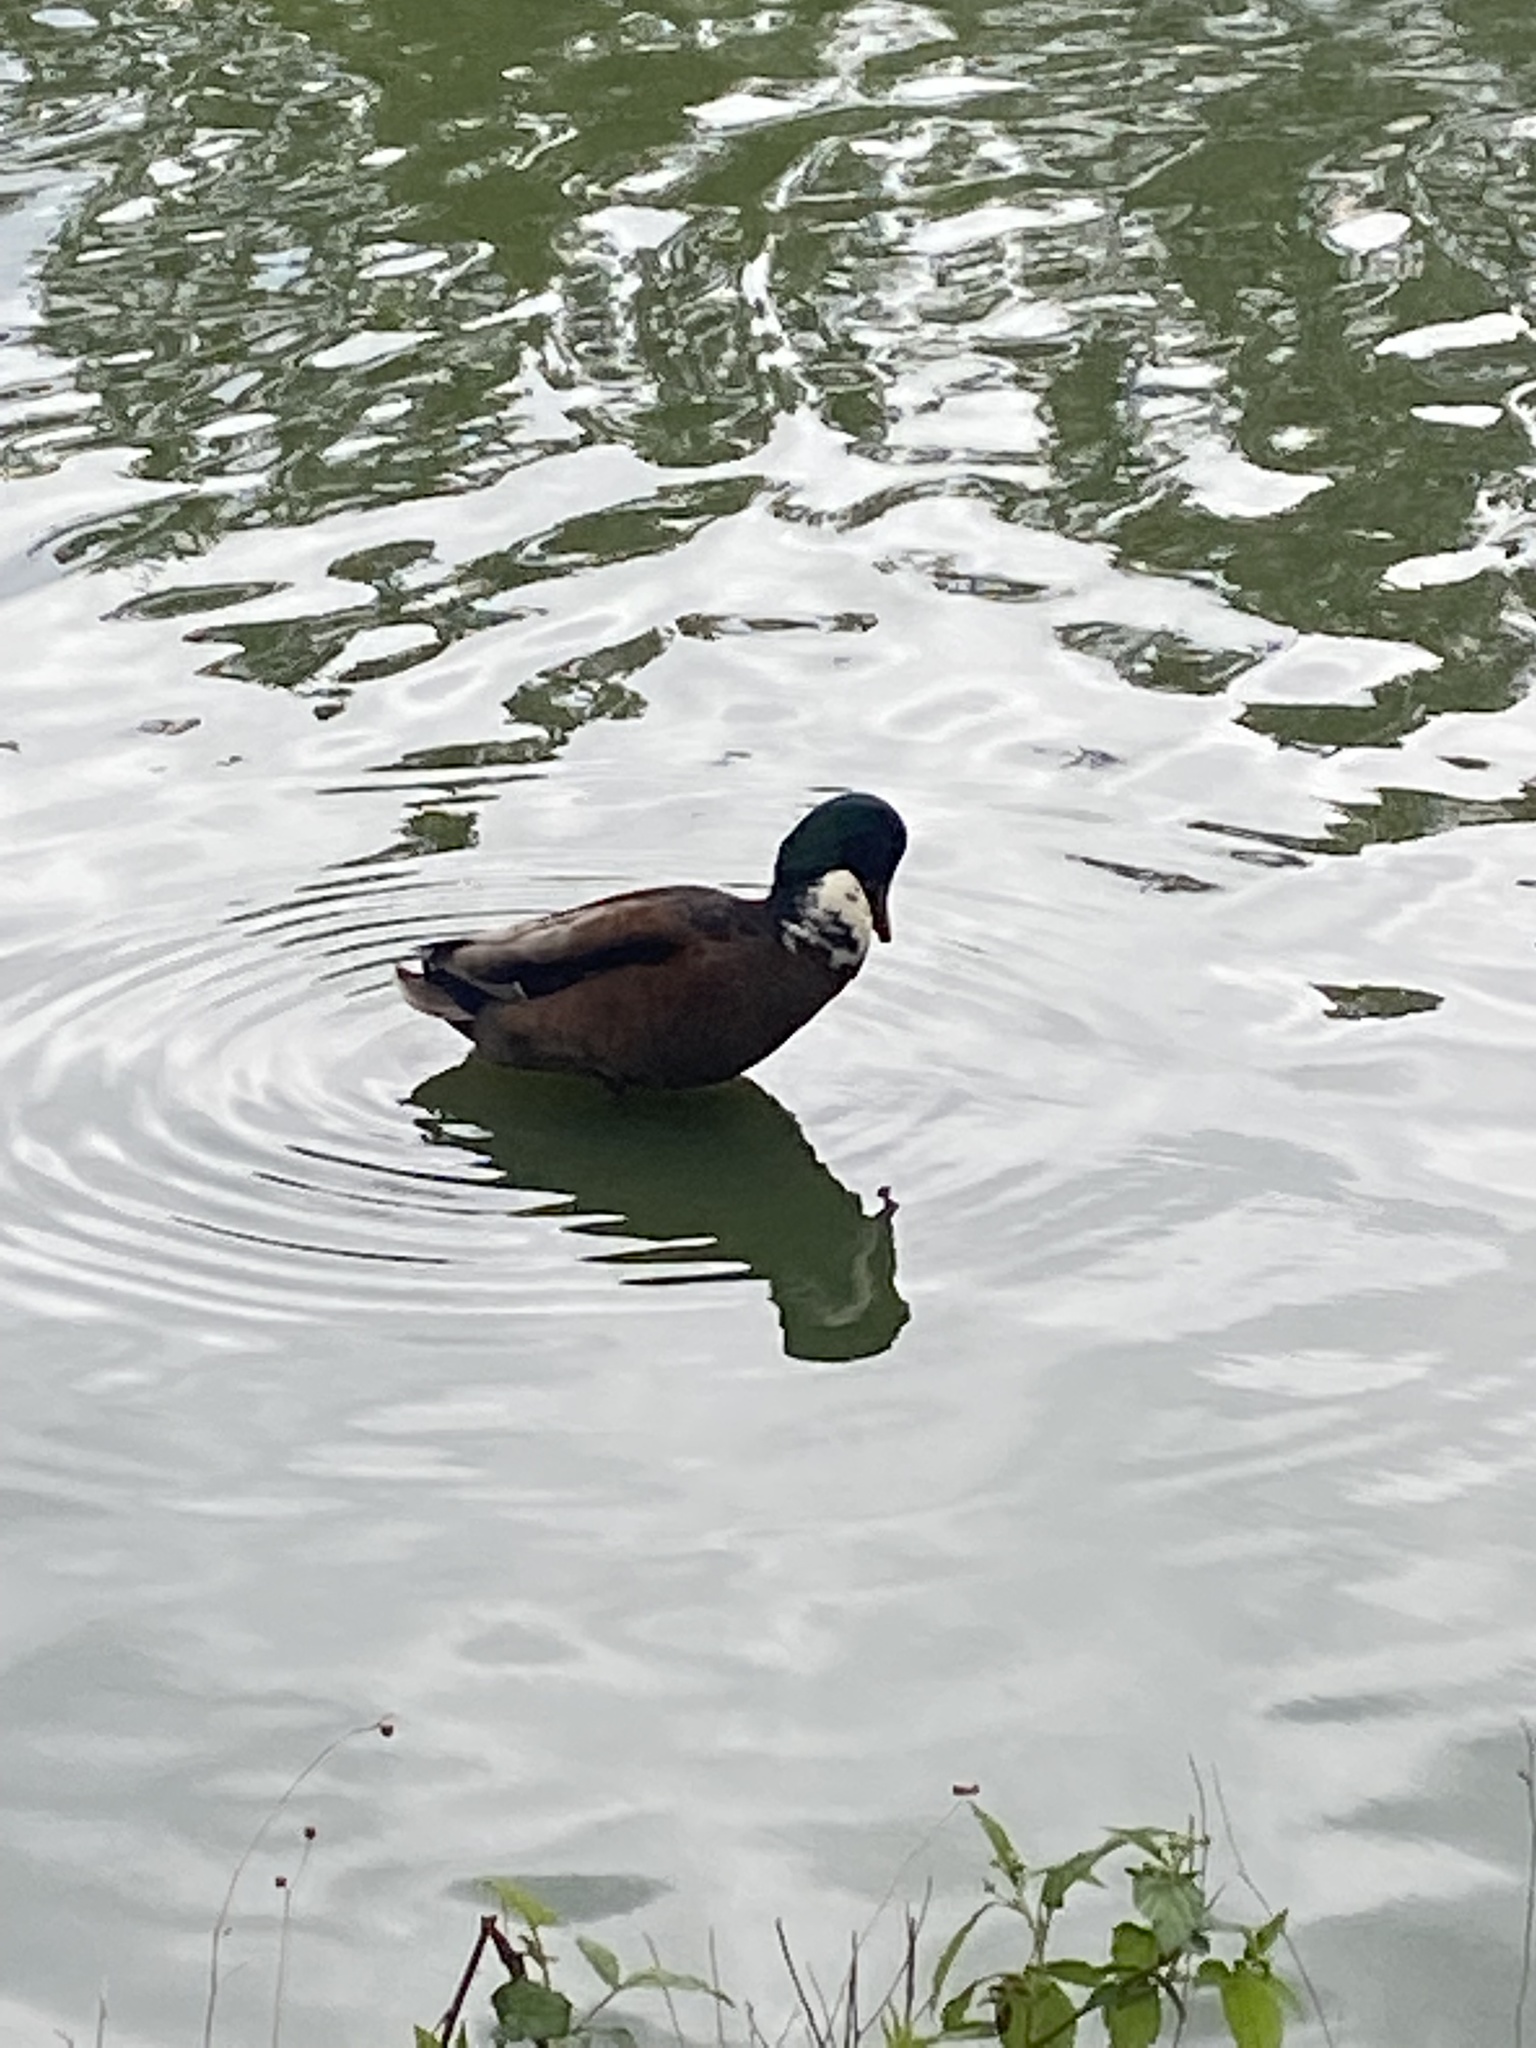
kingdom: Animalia
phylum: Chordata
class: Aves
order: Anseriformes
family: Anatidae
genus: Anas
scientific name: Anas platyrhynchos
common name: Mallard
